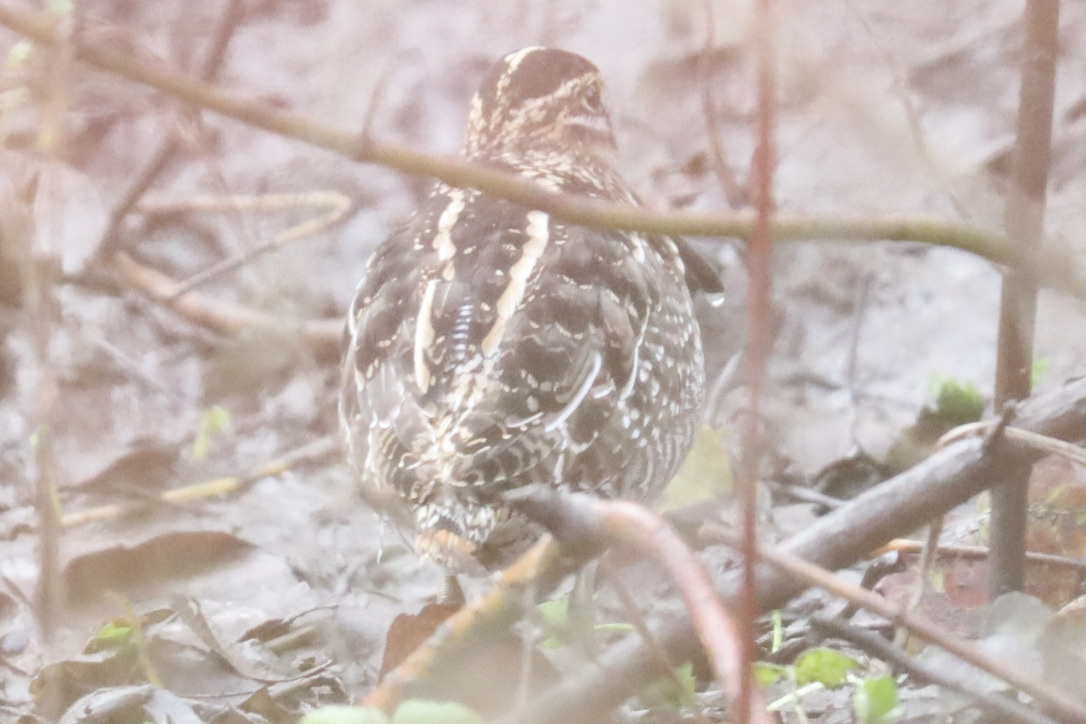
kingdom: Animalia
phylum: Chordata
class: Aves
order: Charadriiformes
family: Scolopacidae
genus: Gallinago
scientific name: Gallinago delicata
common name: Wilson's snipe
